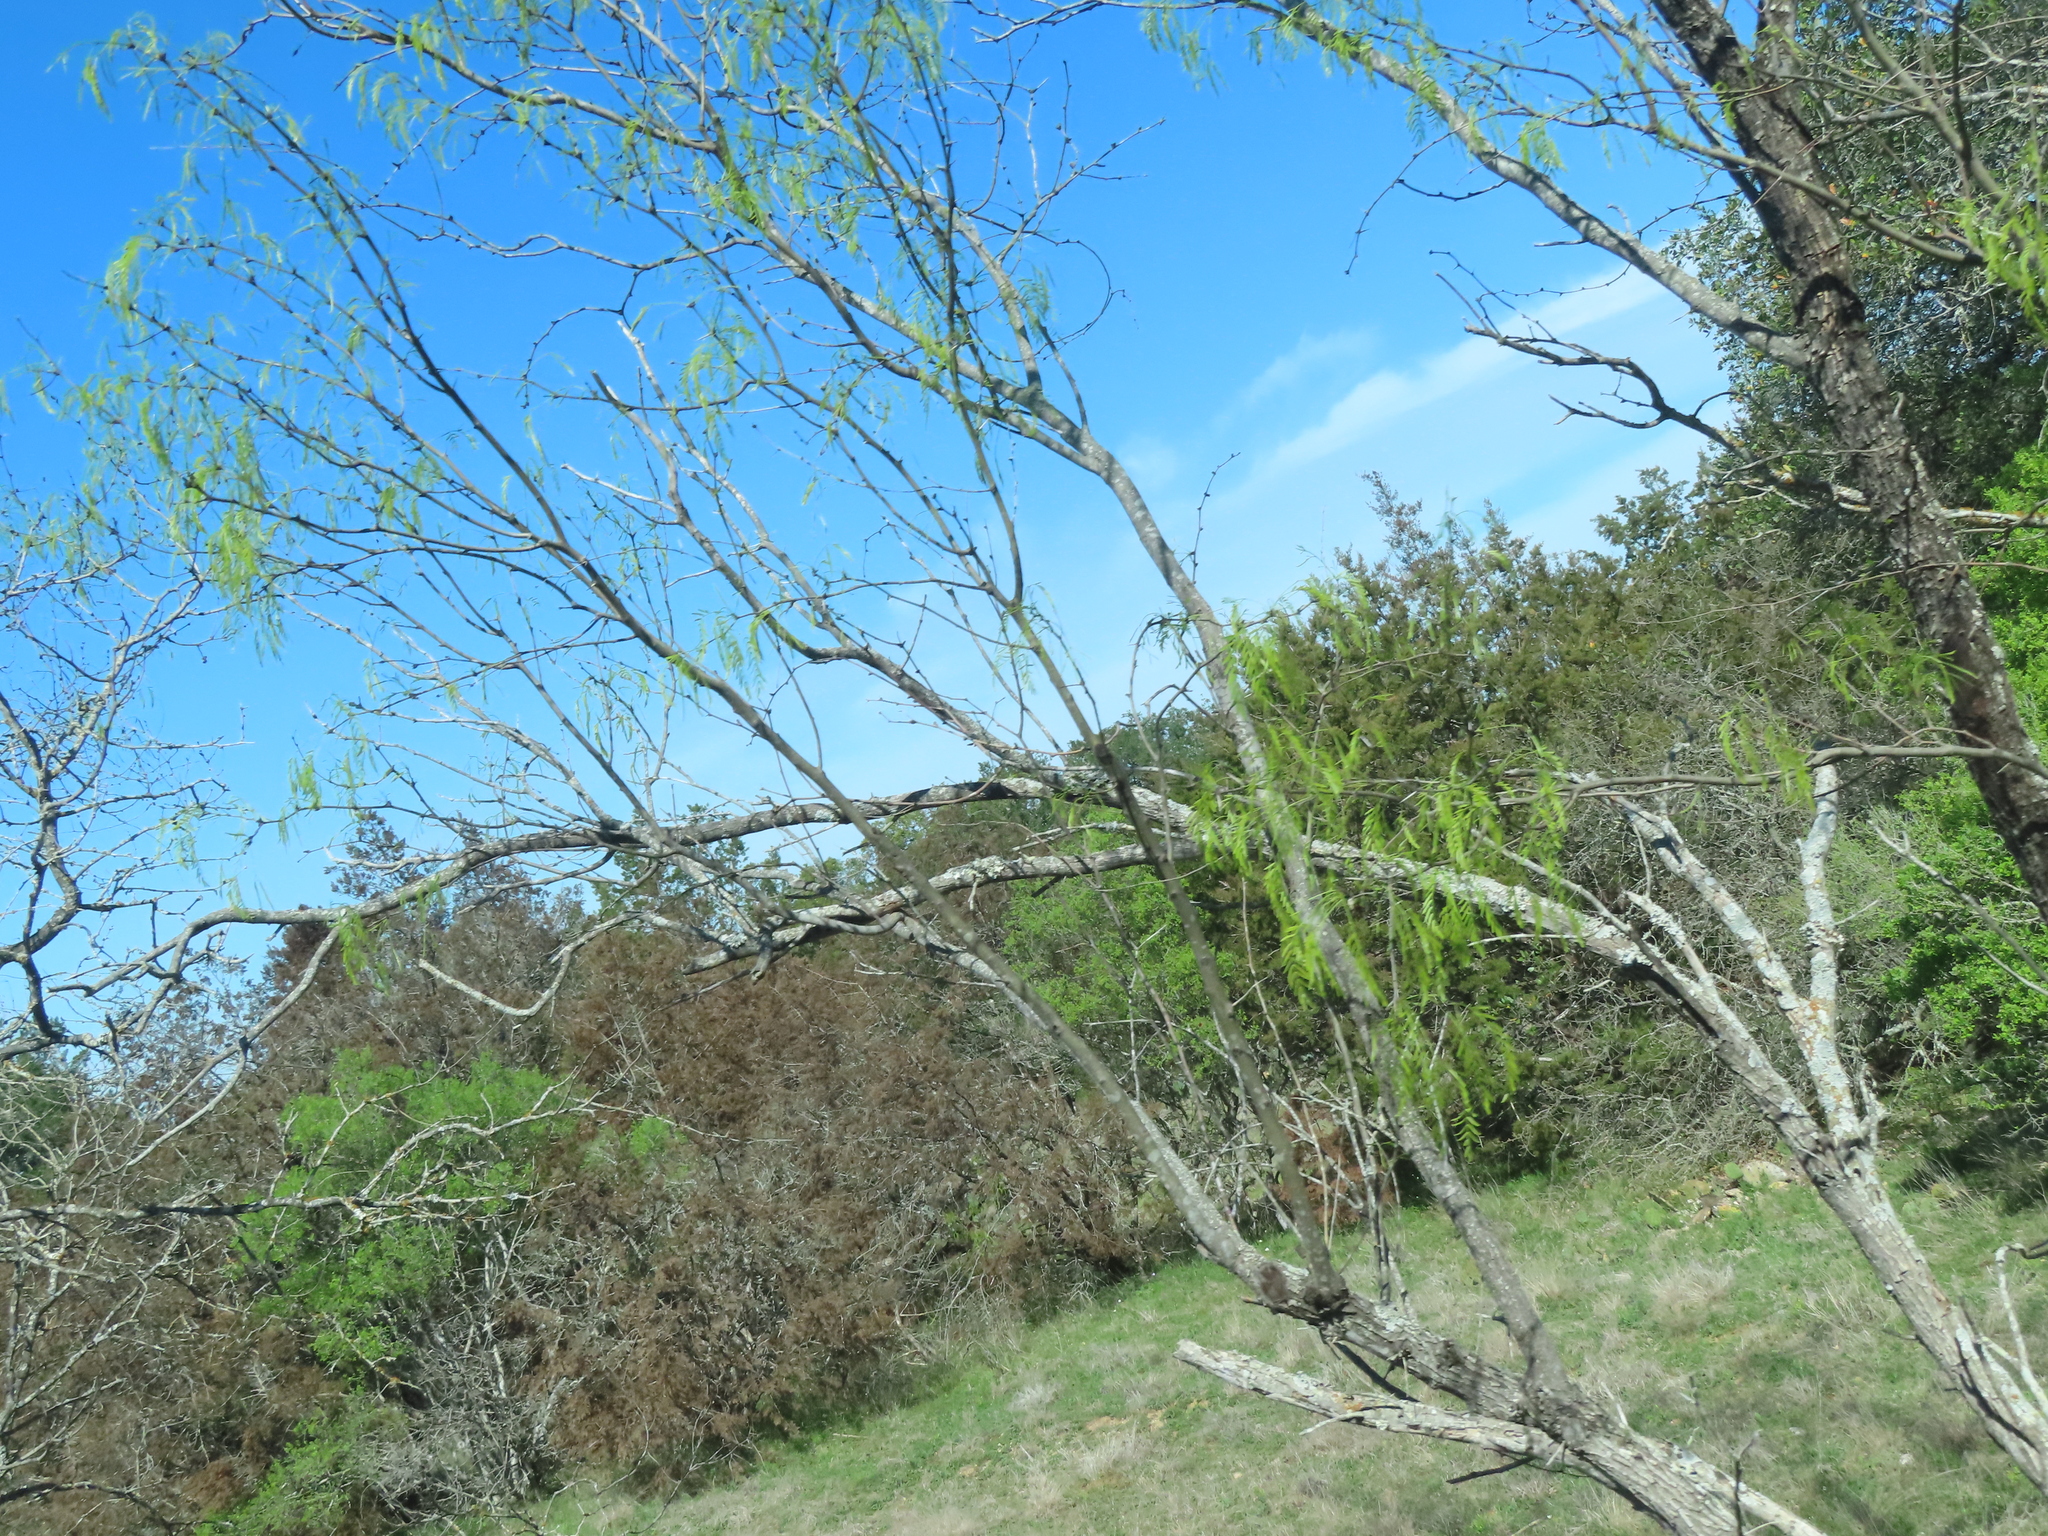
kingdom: Plantae
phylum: Tracheophyta
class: Magnoliopsida
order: Fabales
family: Fabaceae
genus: Prosopis
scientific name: Prosopis glandulosa
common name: Honey mesquite
